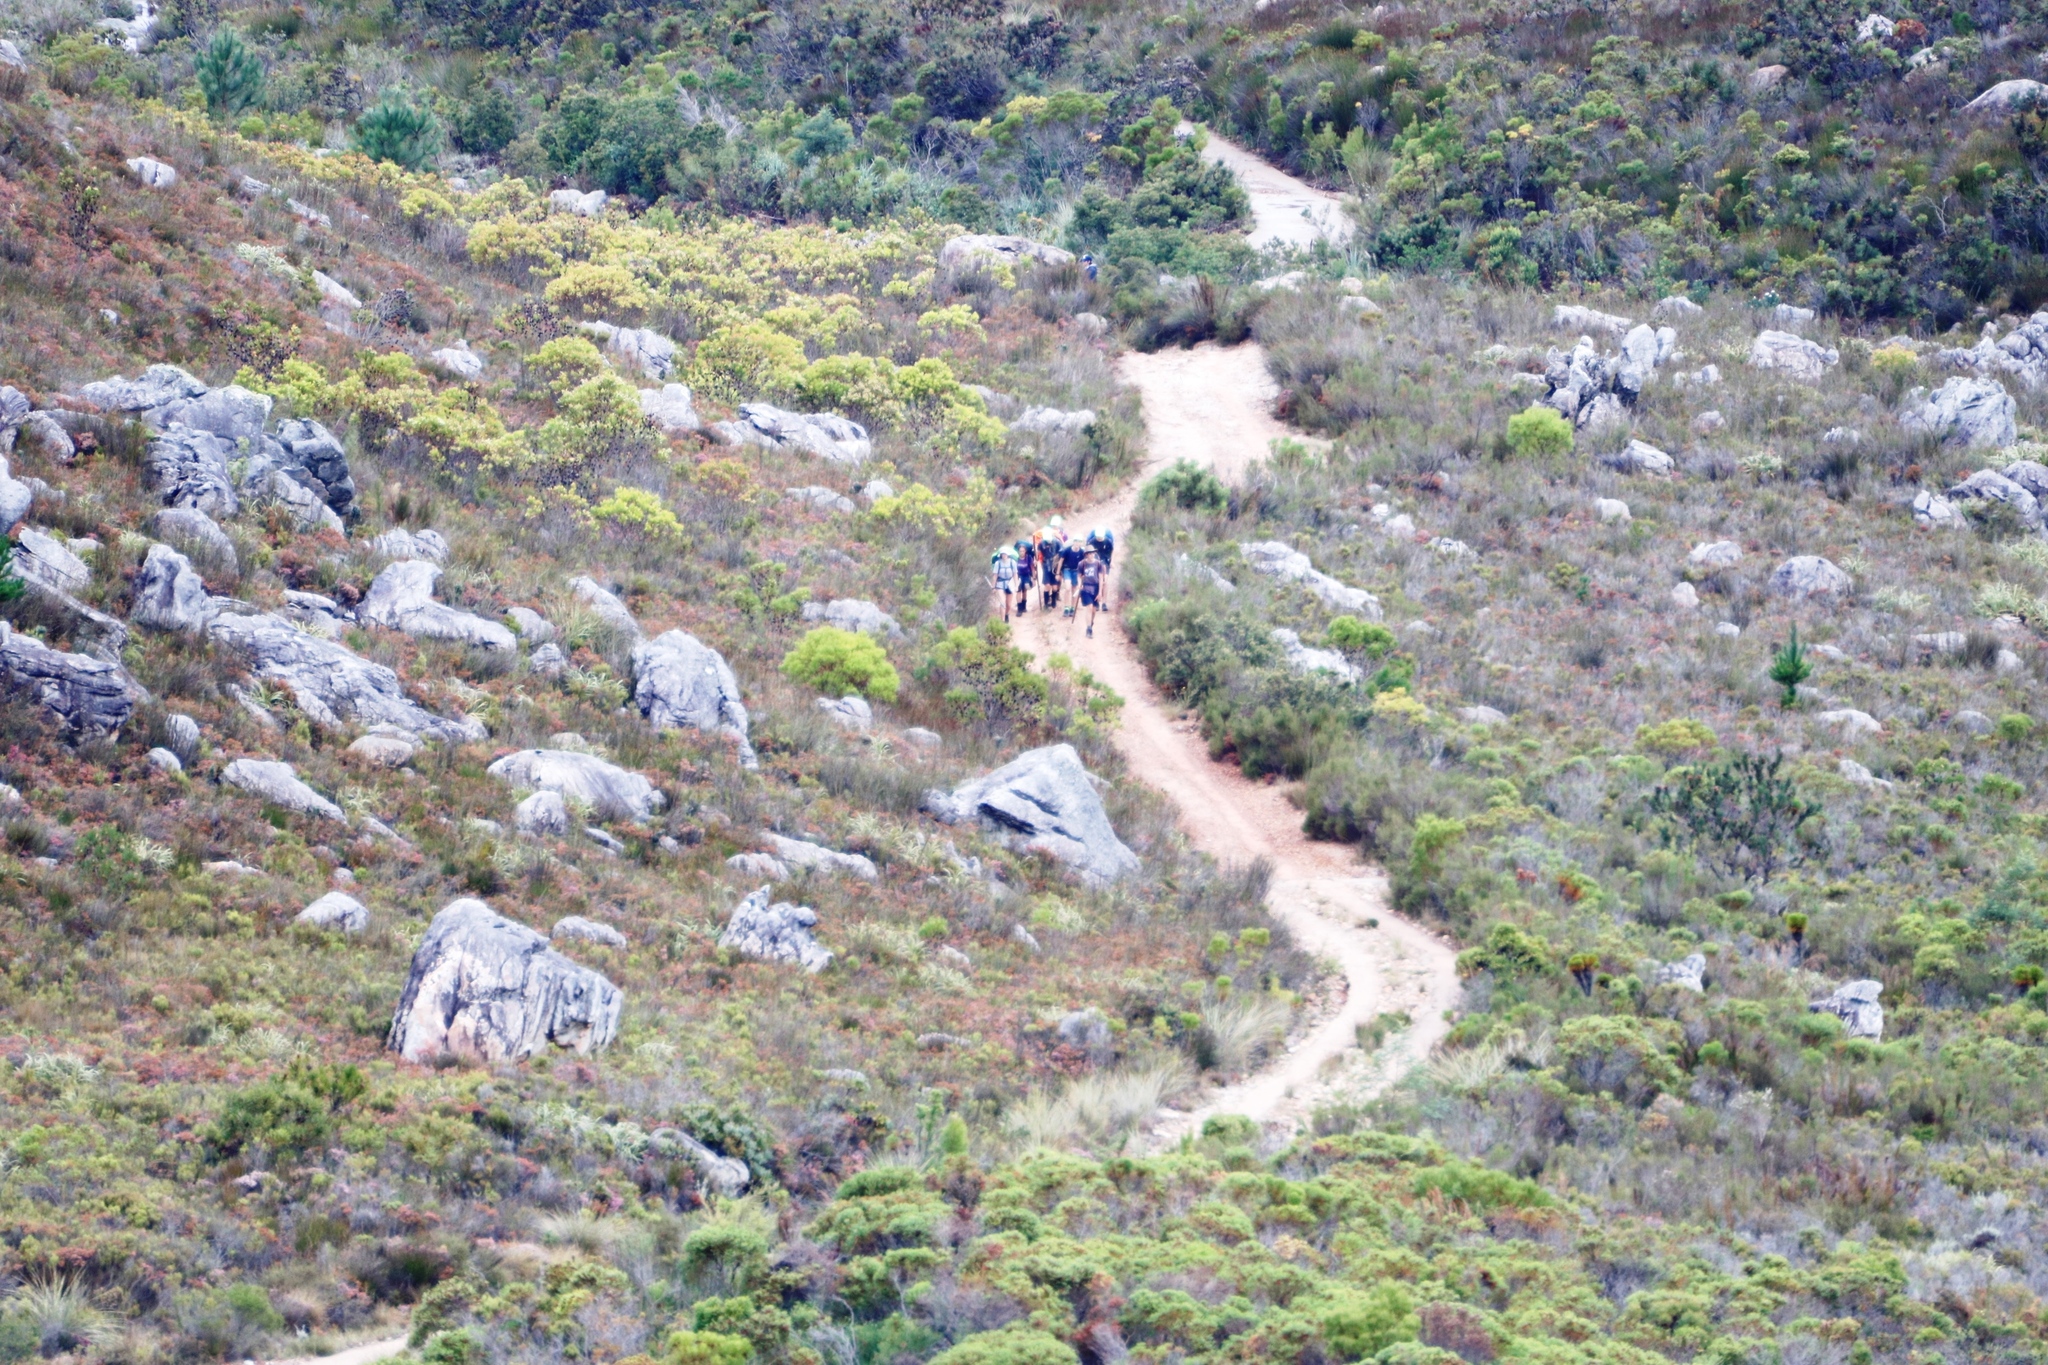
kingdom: Plantae
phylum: Tracheophyta
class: Magnoliopsida
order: Proteales
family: Proteaceae
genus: Leucadendron
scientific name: Leucadendron microcephalum
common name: Oilbract conebush
